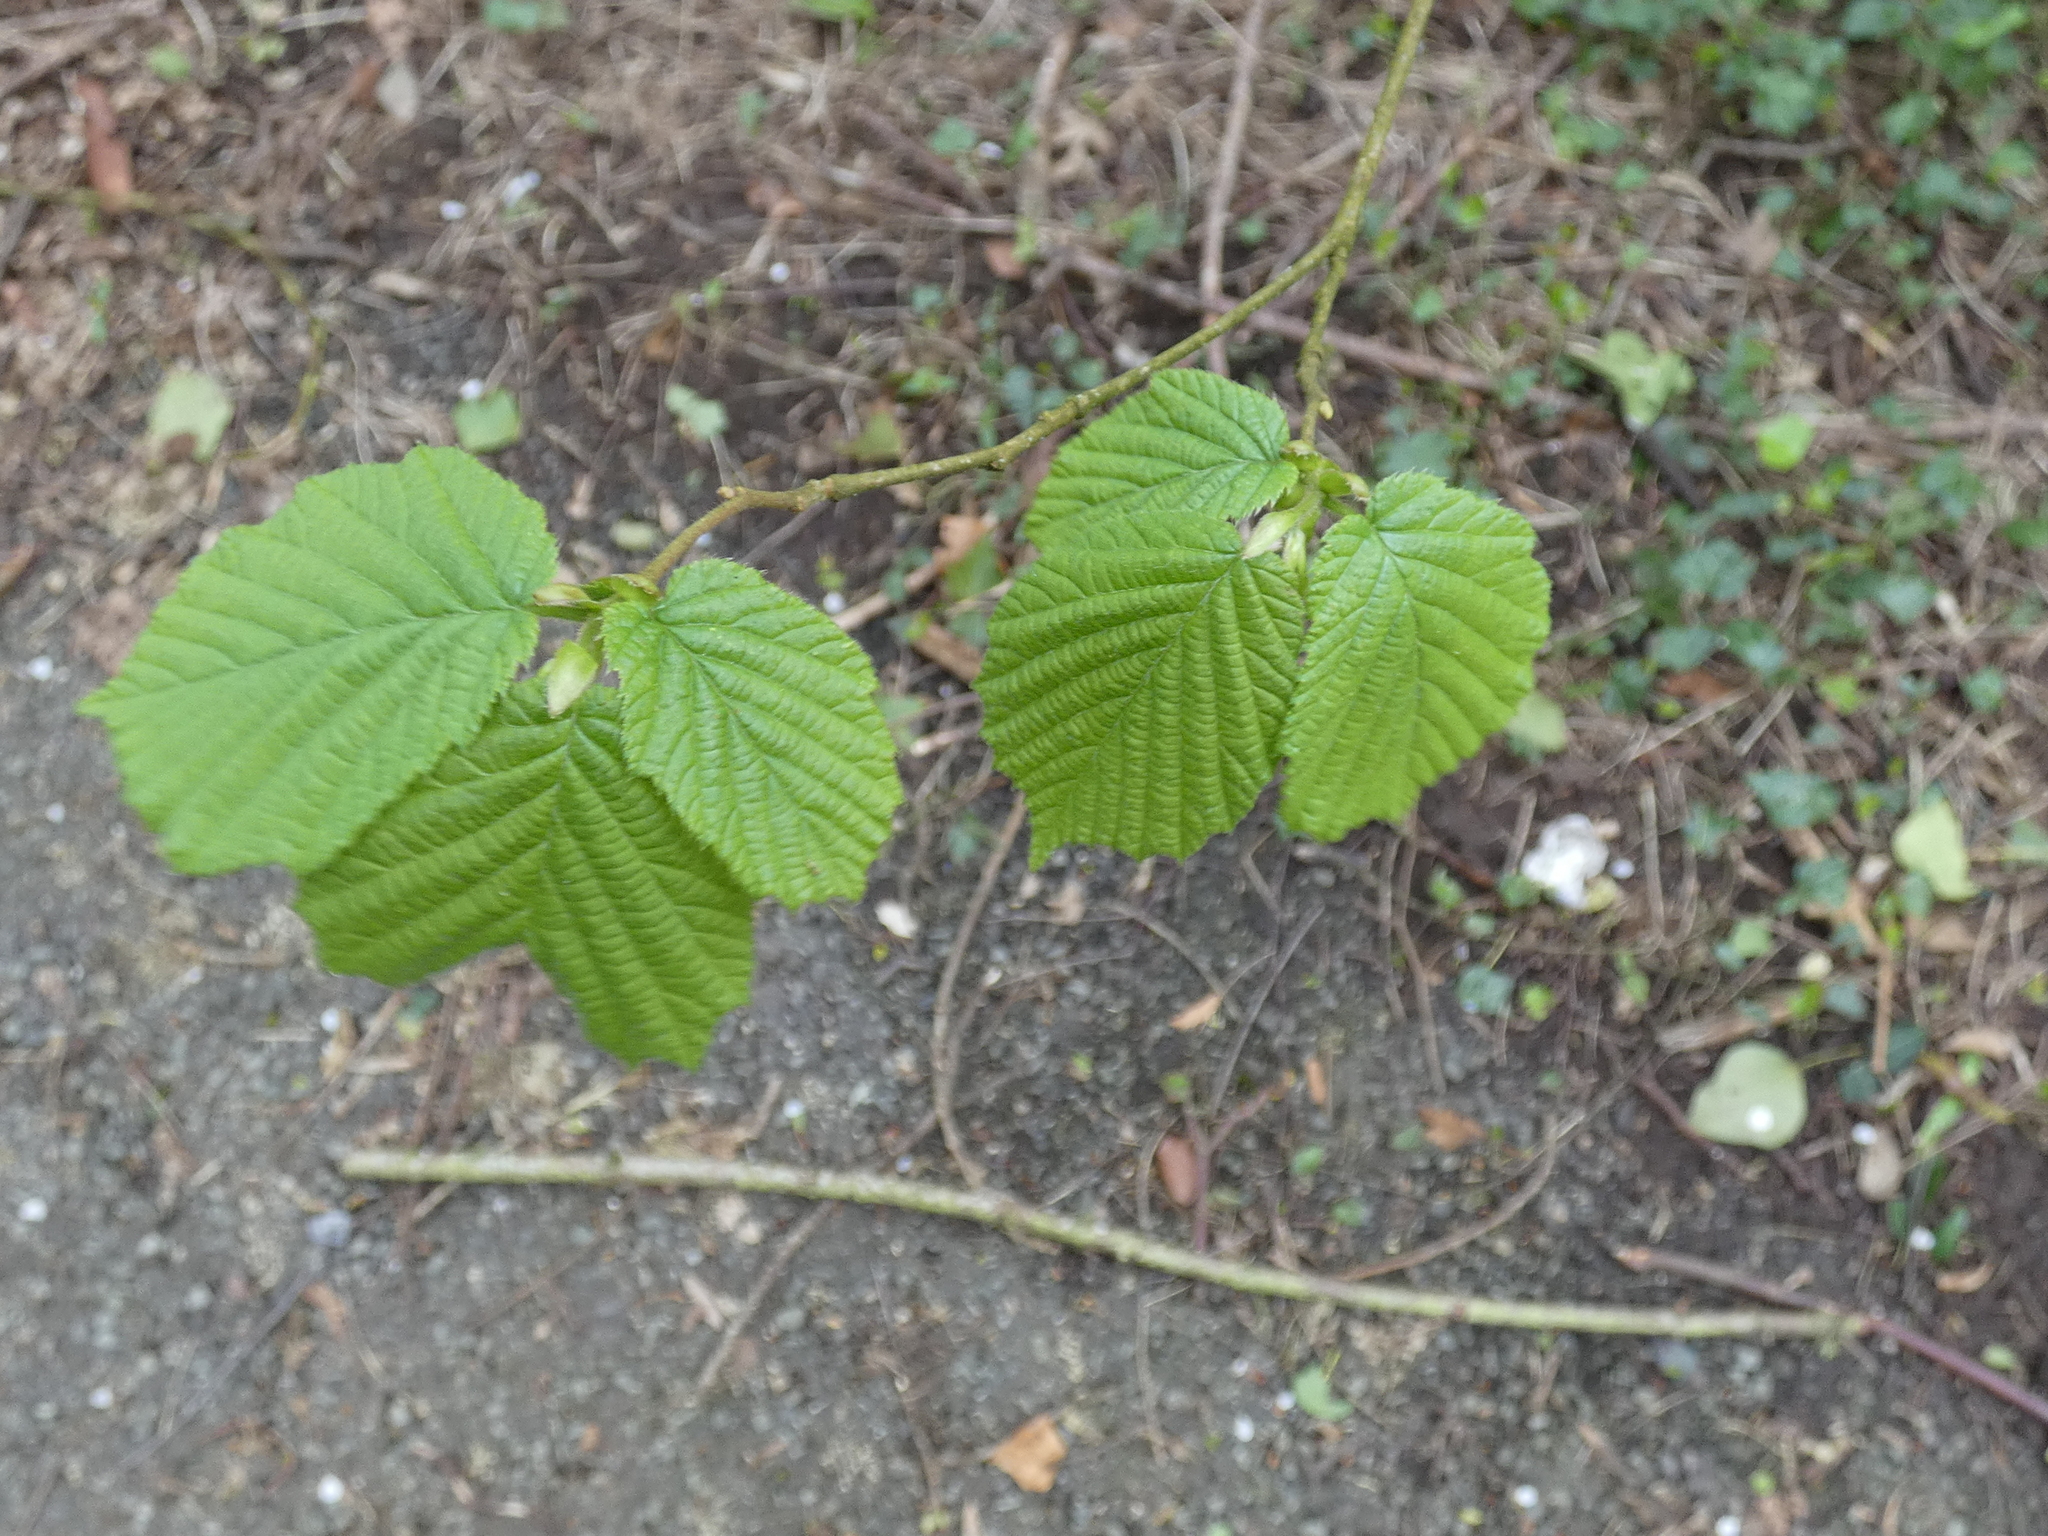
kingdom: Plantae
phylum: Tracheophyta
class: Magnoliopsida
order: Fagales
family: Betulaceae
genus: Corylus
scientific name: Corylus avellana
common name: European hazel
